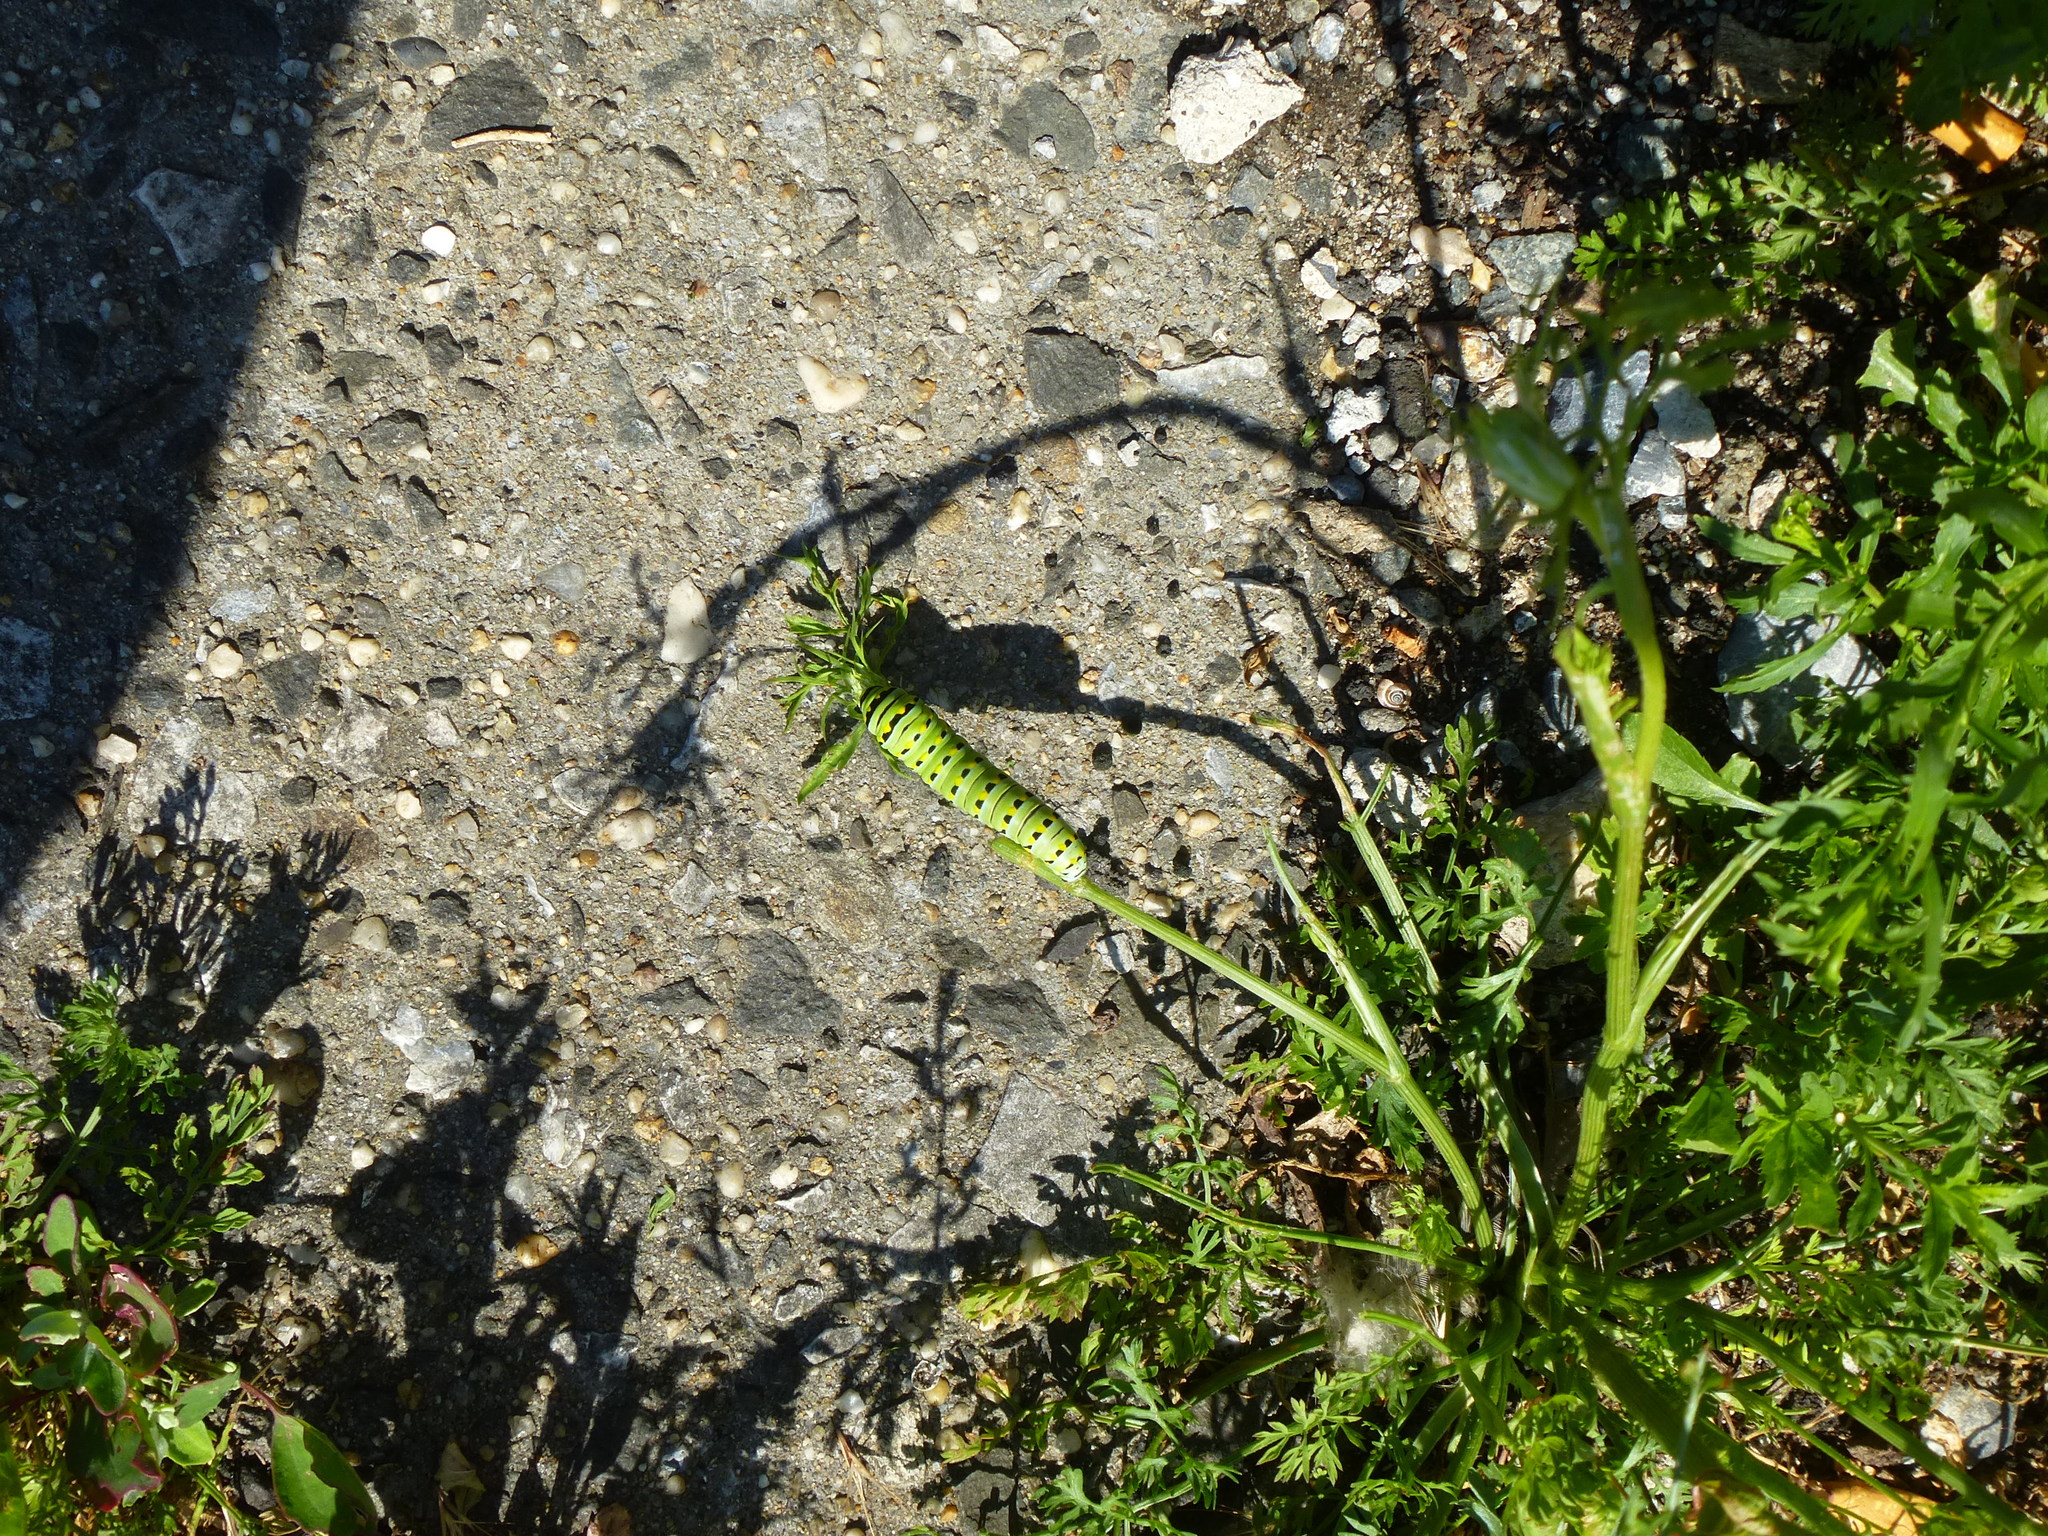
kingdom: Animalia
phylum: Arthropoda
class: Insecta
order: Lepidoptera
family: Papilionidae
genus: Papilio
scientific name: Papilio polyxenes
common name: Black swallowtail
